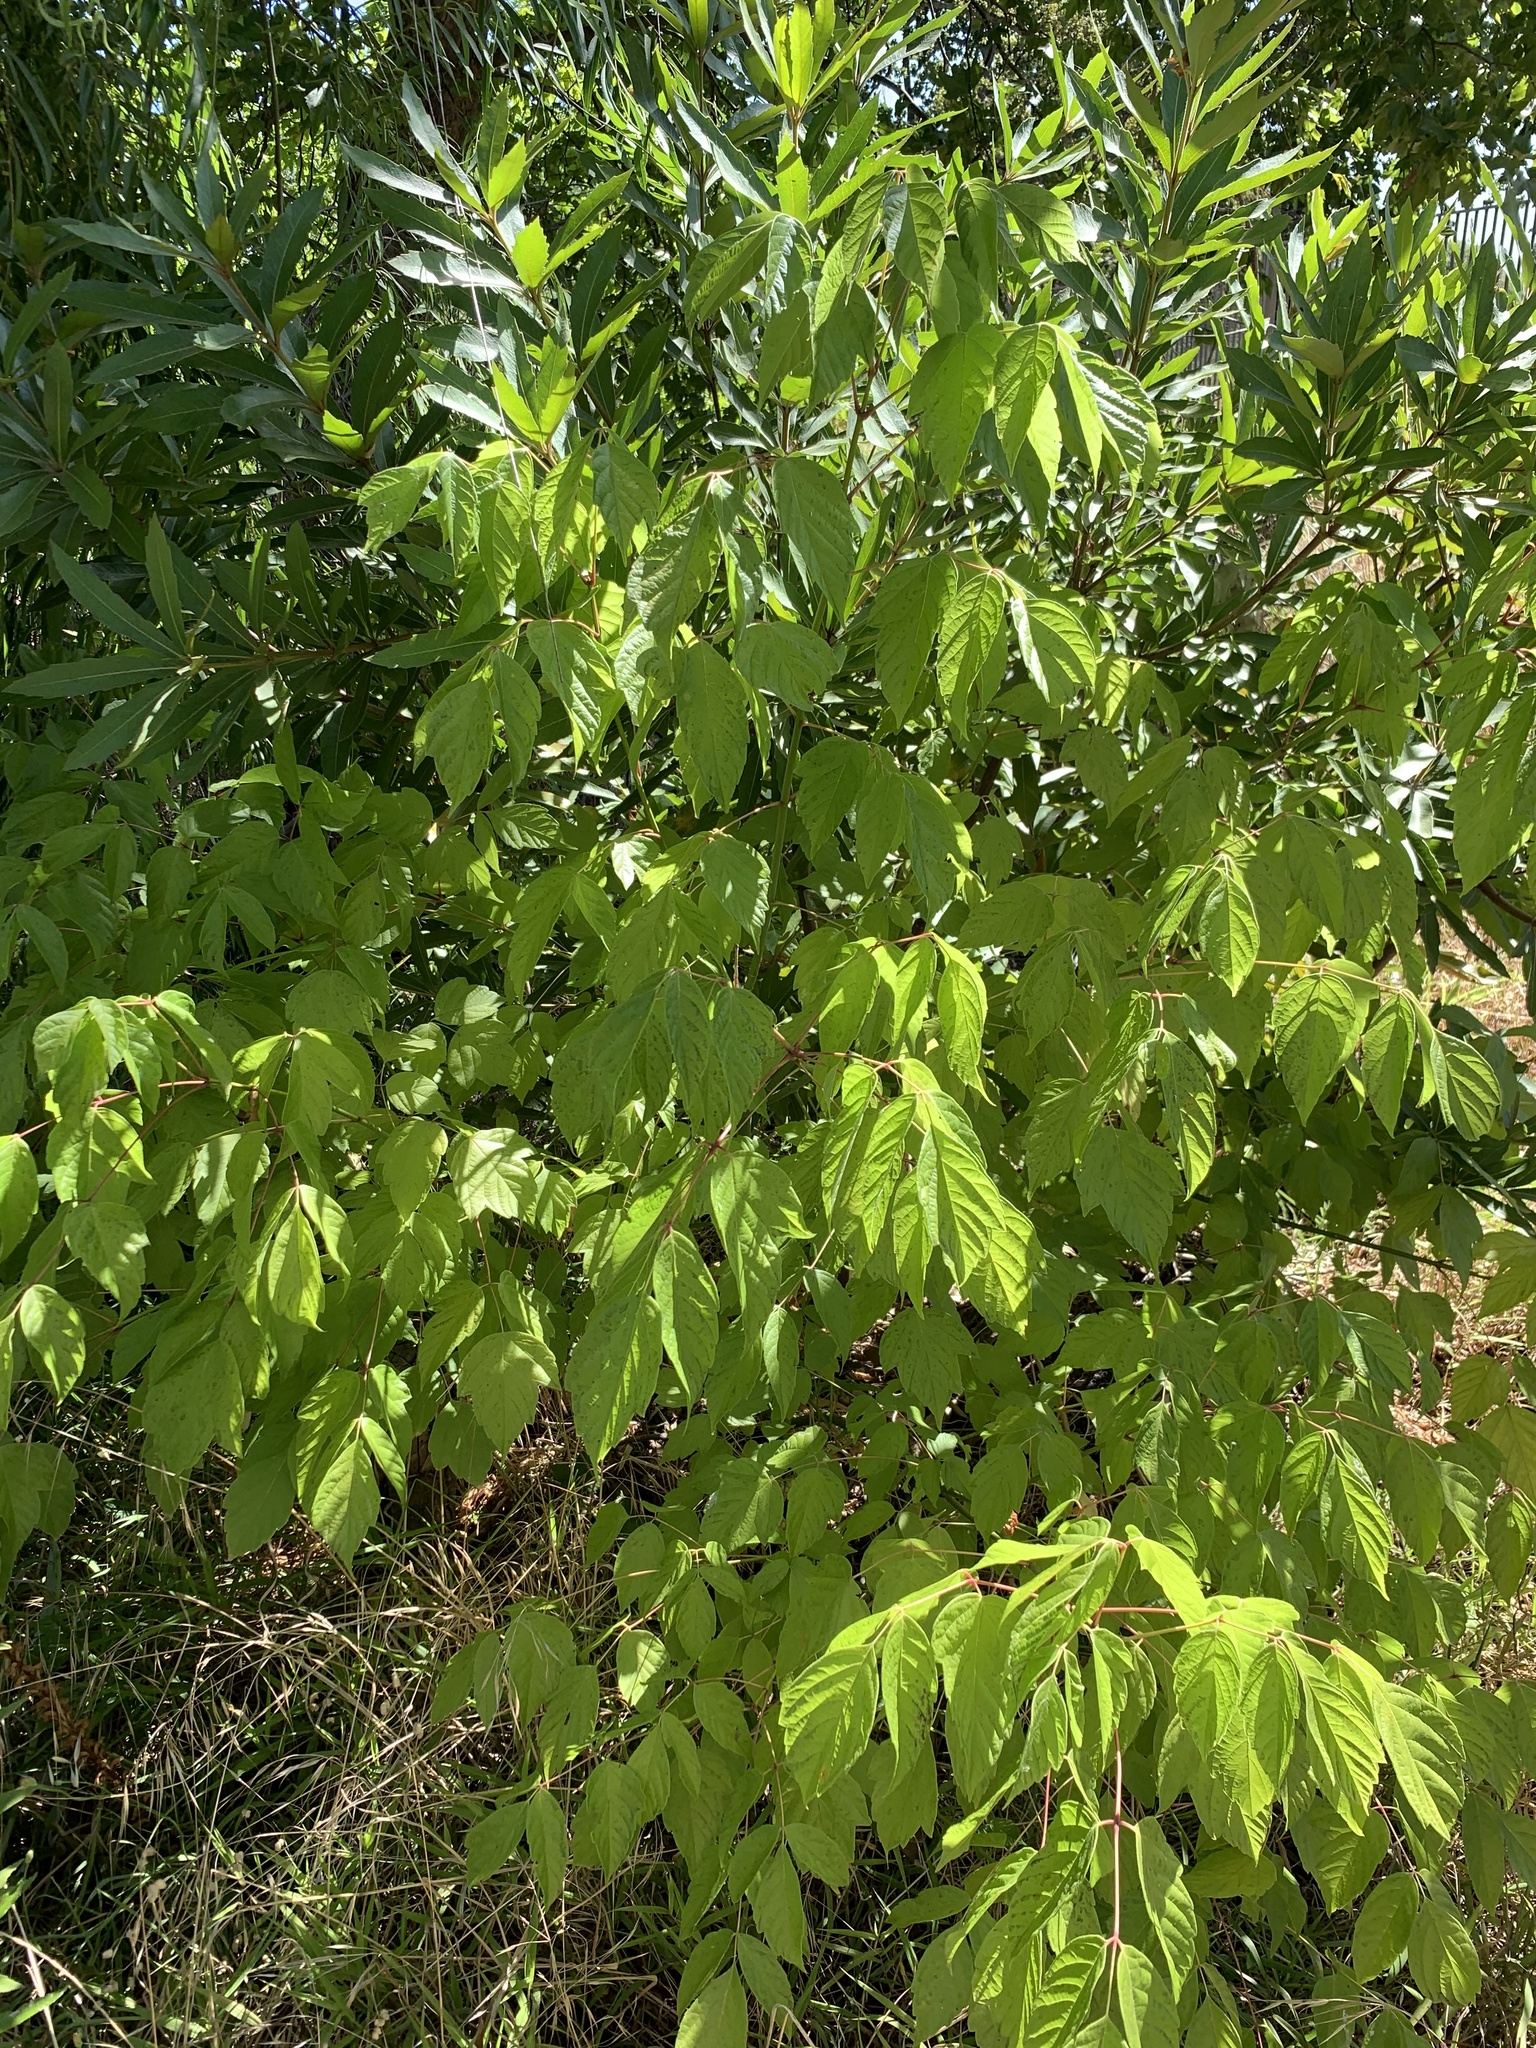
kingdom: Plantae
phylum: Tracheophyta
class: Magnoliopsida
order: Sapindales
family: Sapindaceae
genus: Acer
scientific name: Acer negundo
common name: Ashleaf maple
